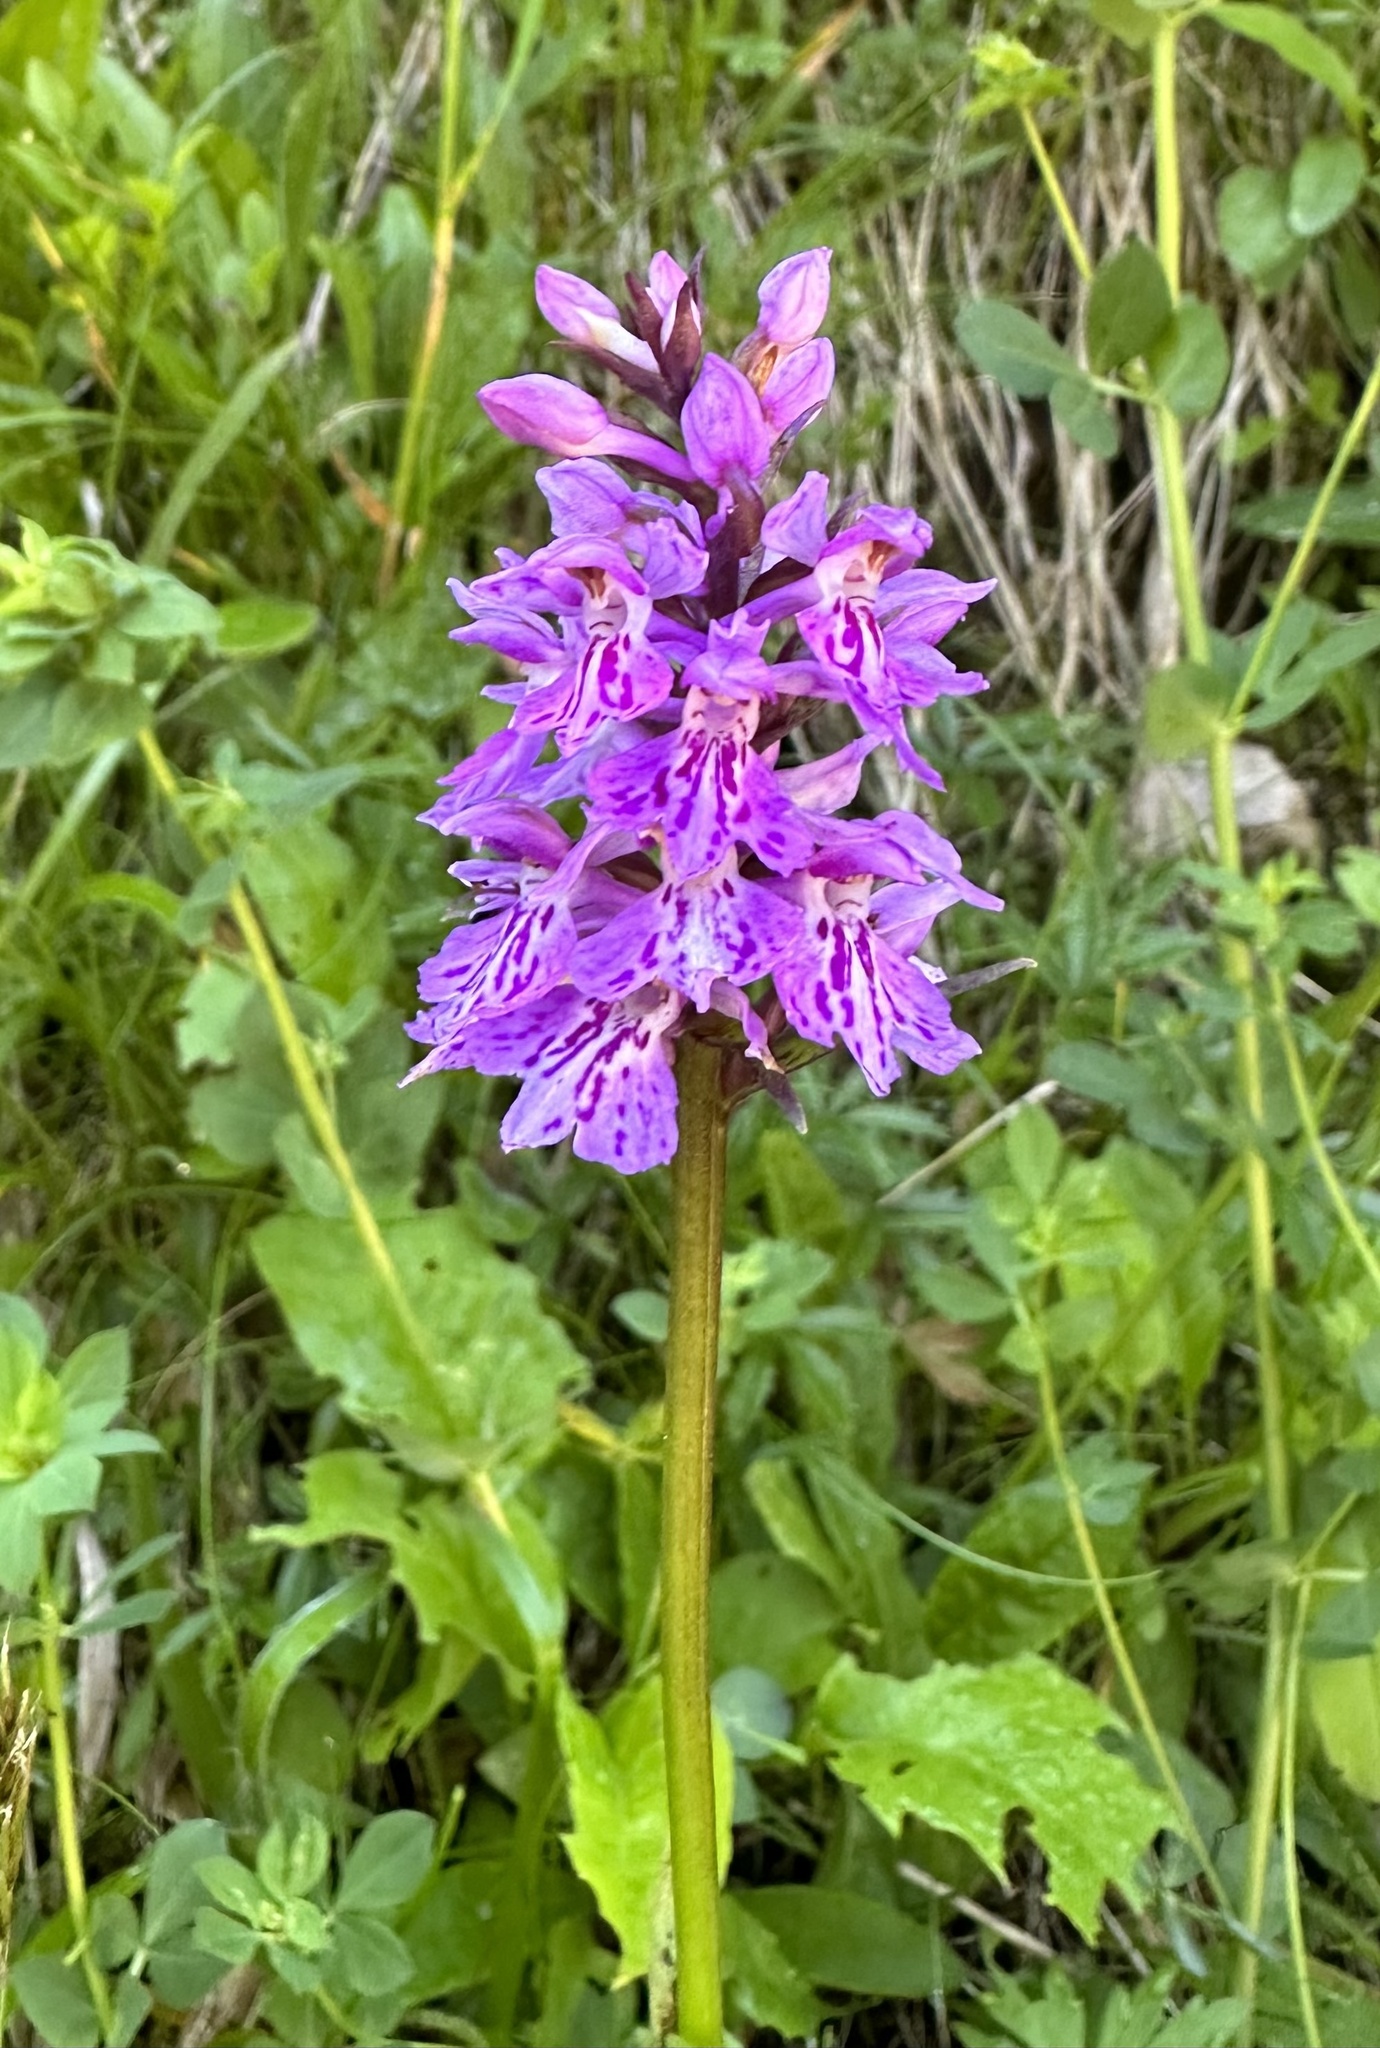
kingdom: Plantae
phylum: Tracheophyta
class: Liliopsida
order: Asparagales
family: Orchidaceae
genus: Dactylorhiza
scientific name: Dactylorhiza maculata
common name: Heath spotted-orchid
